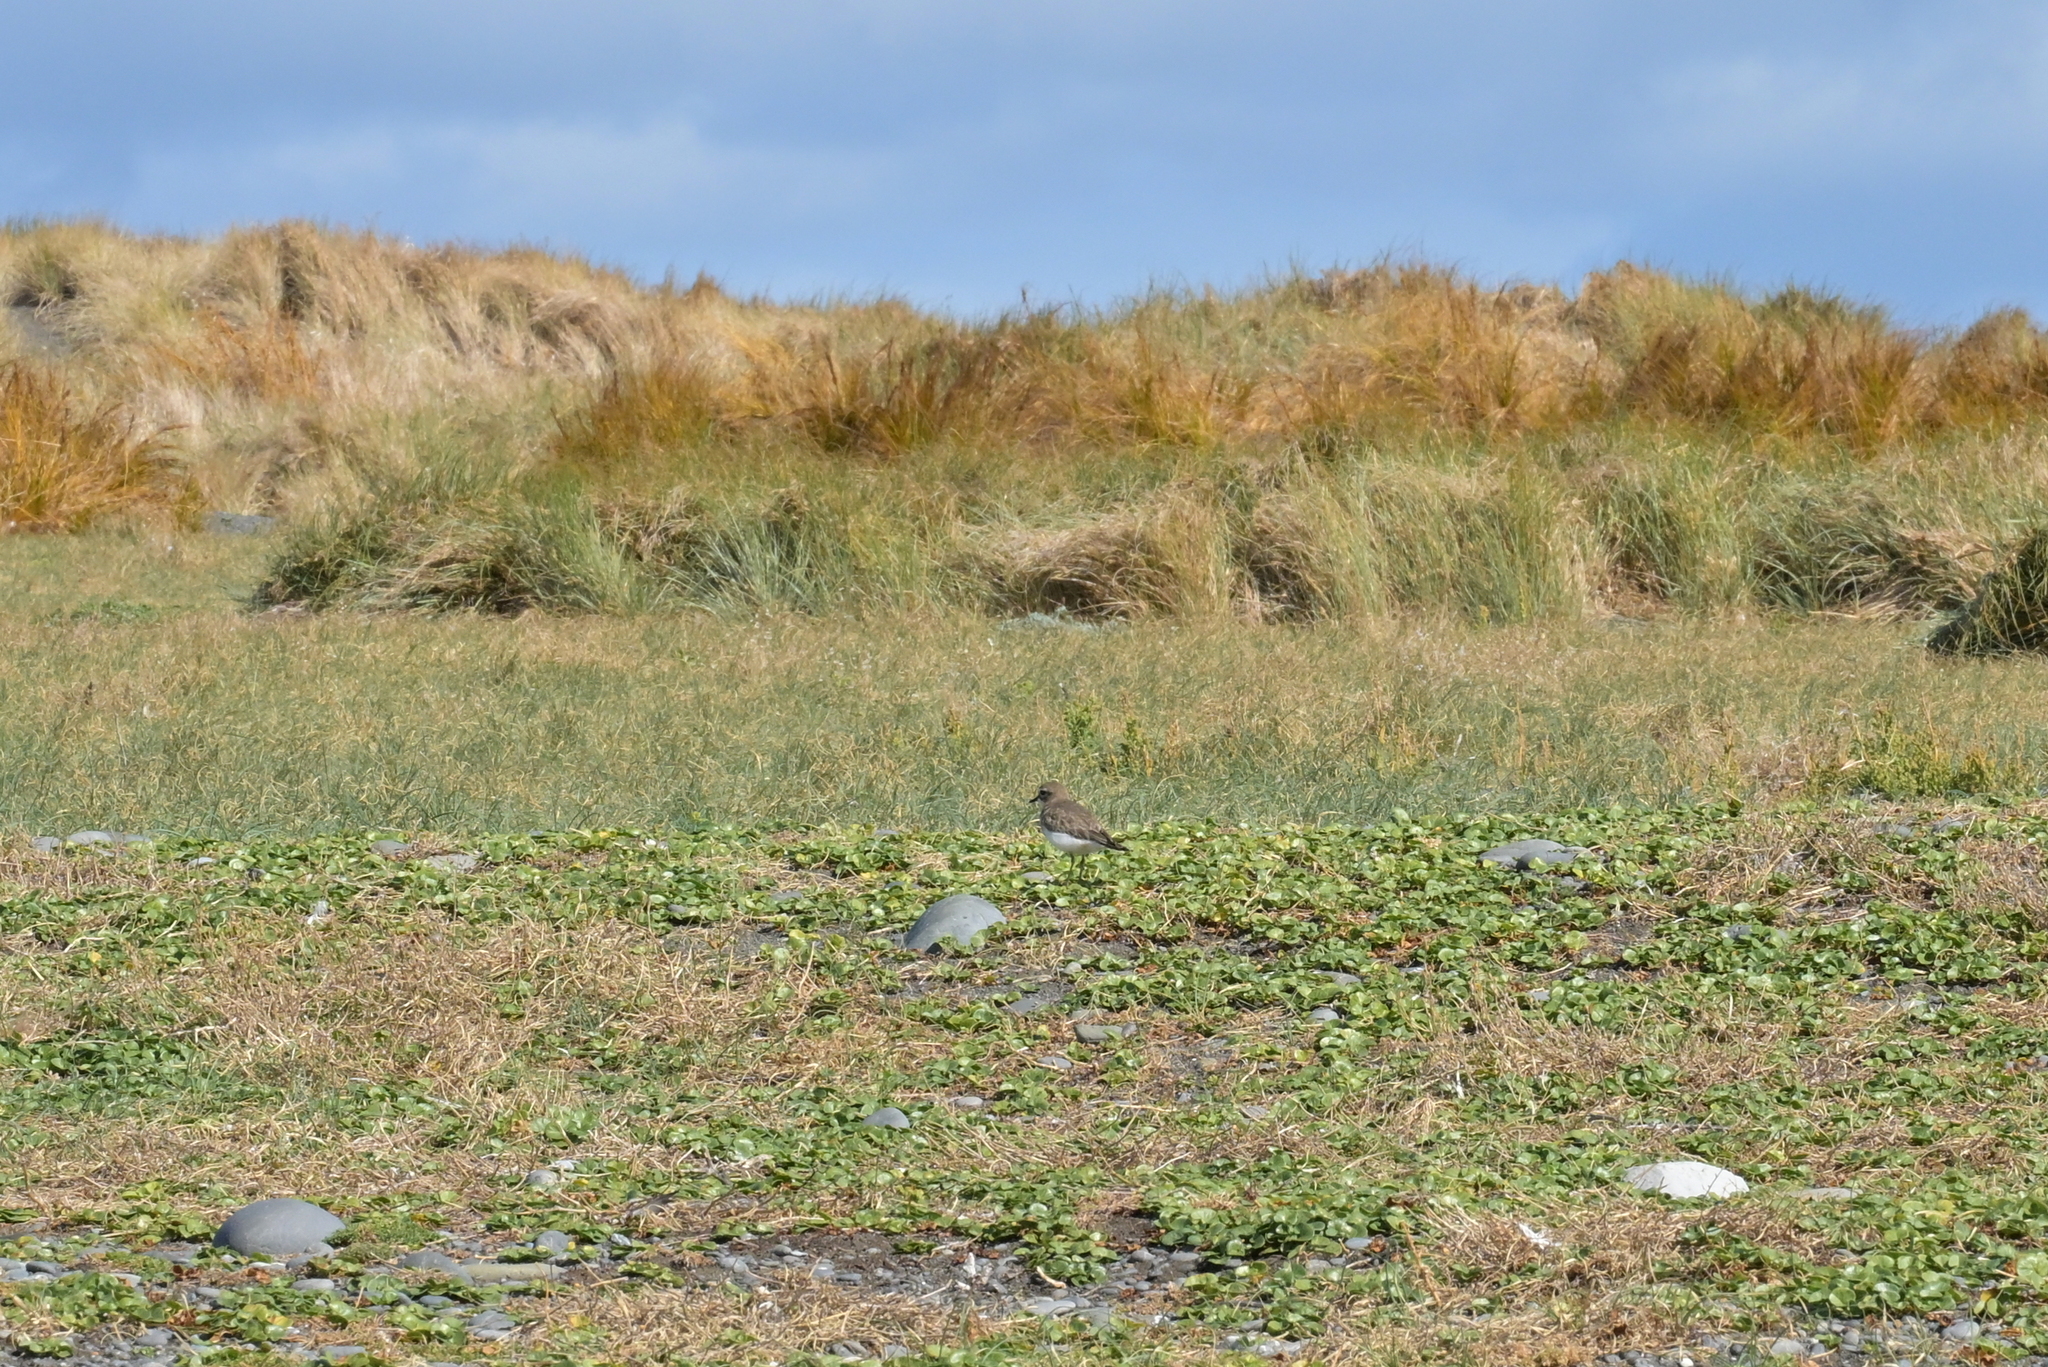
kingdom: Animalia
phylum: Chordata
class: Aves
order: Charadriiformes
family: Charadriidae
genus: Anarhynchus
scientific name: Anarhynchus
